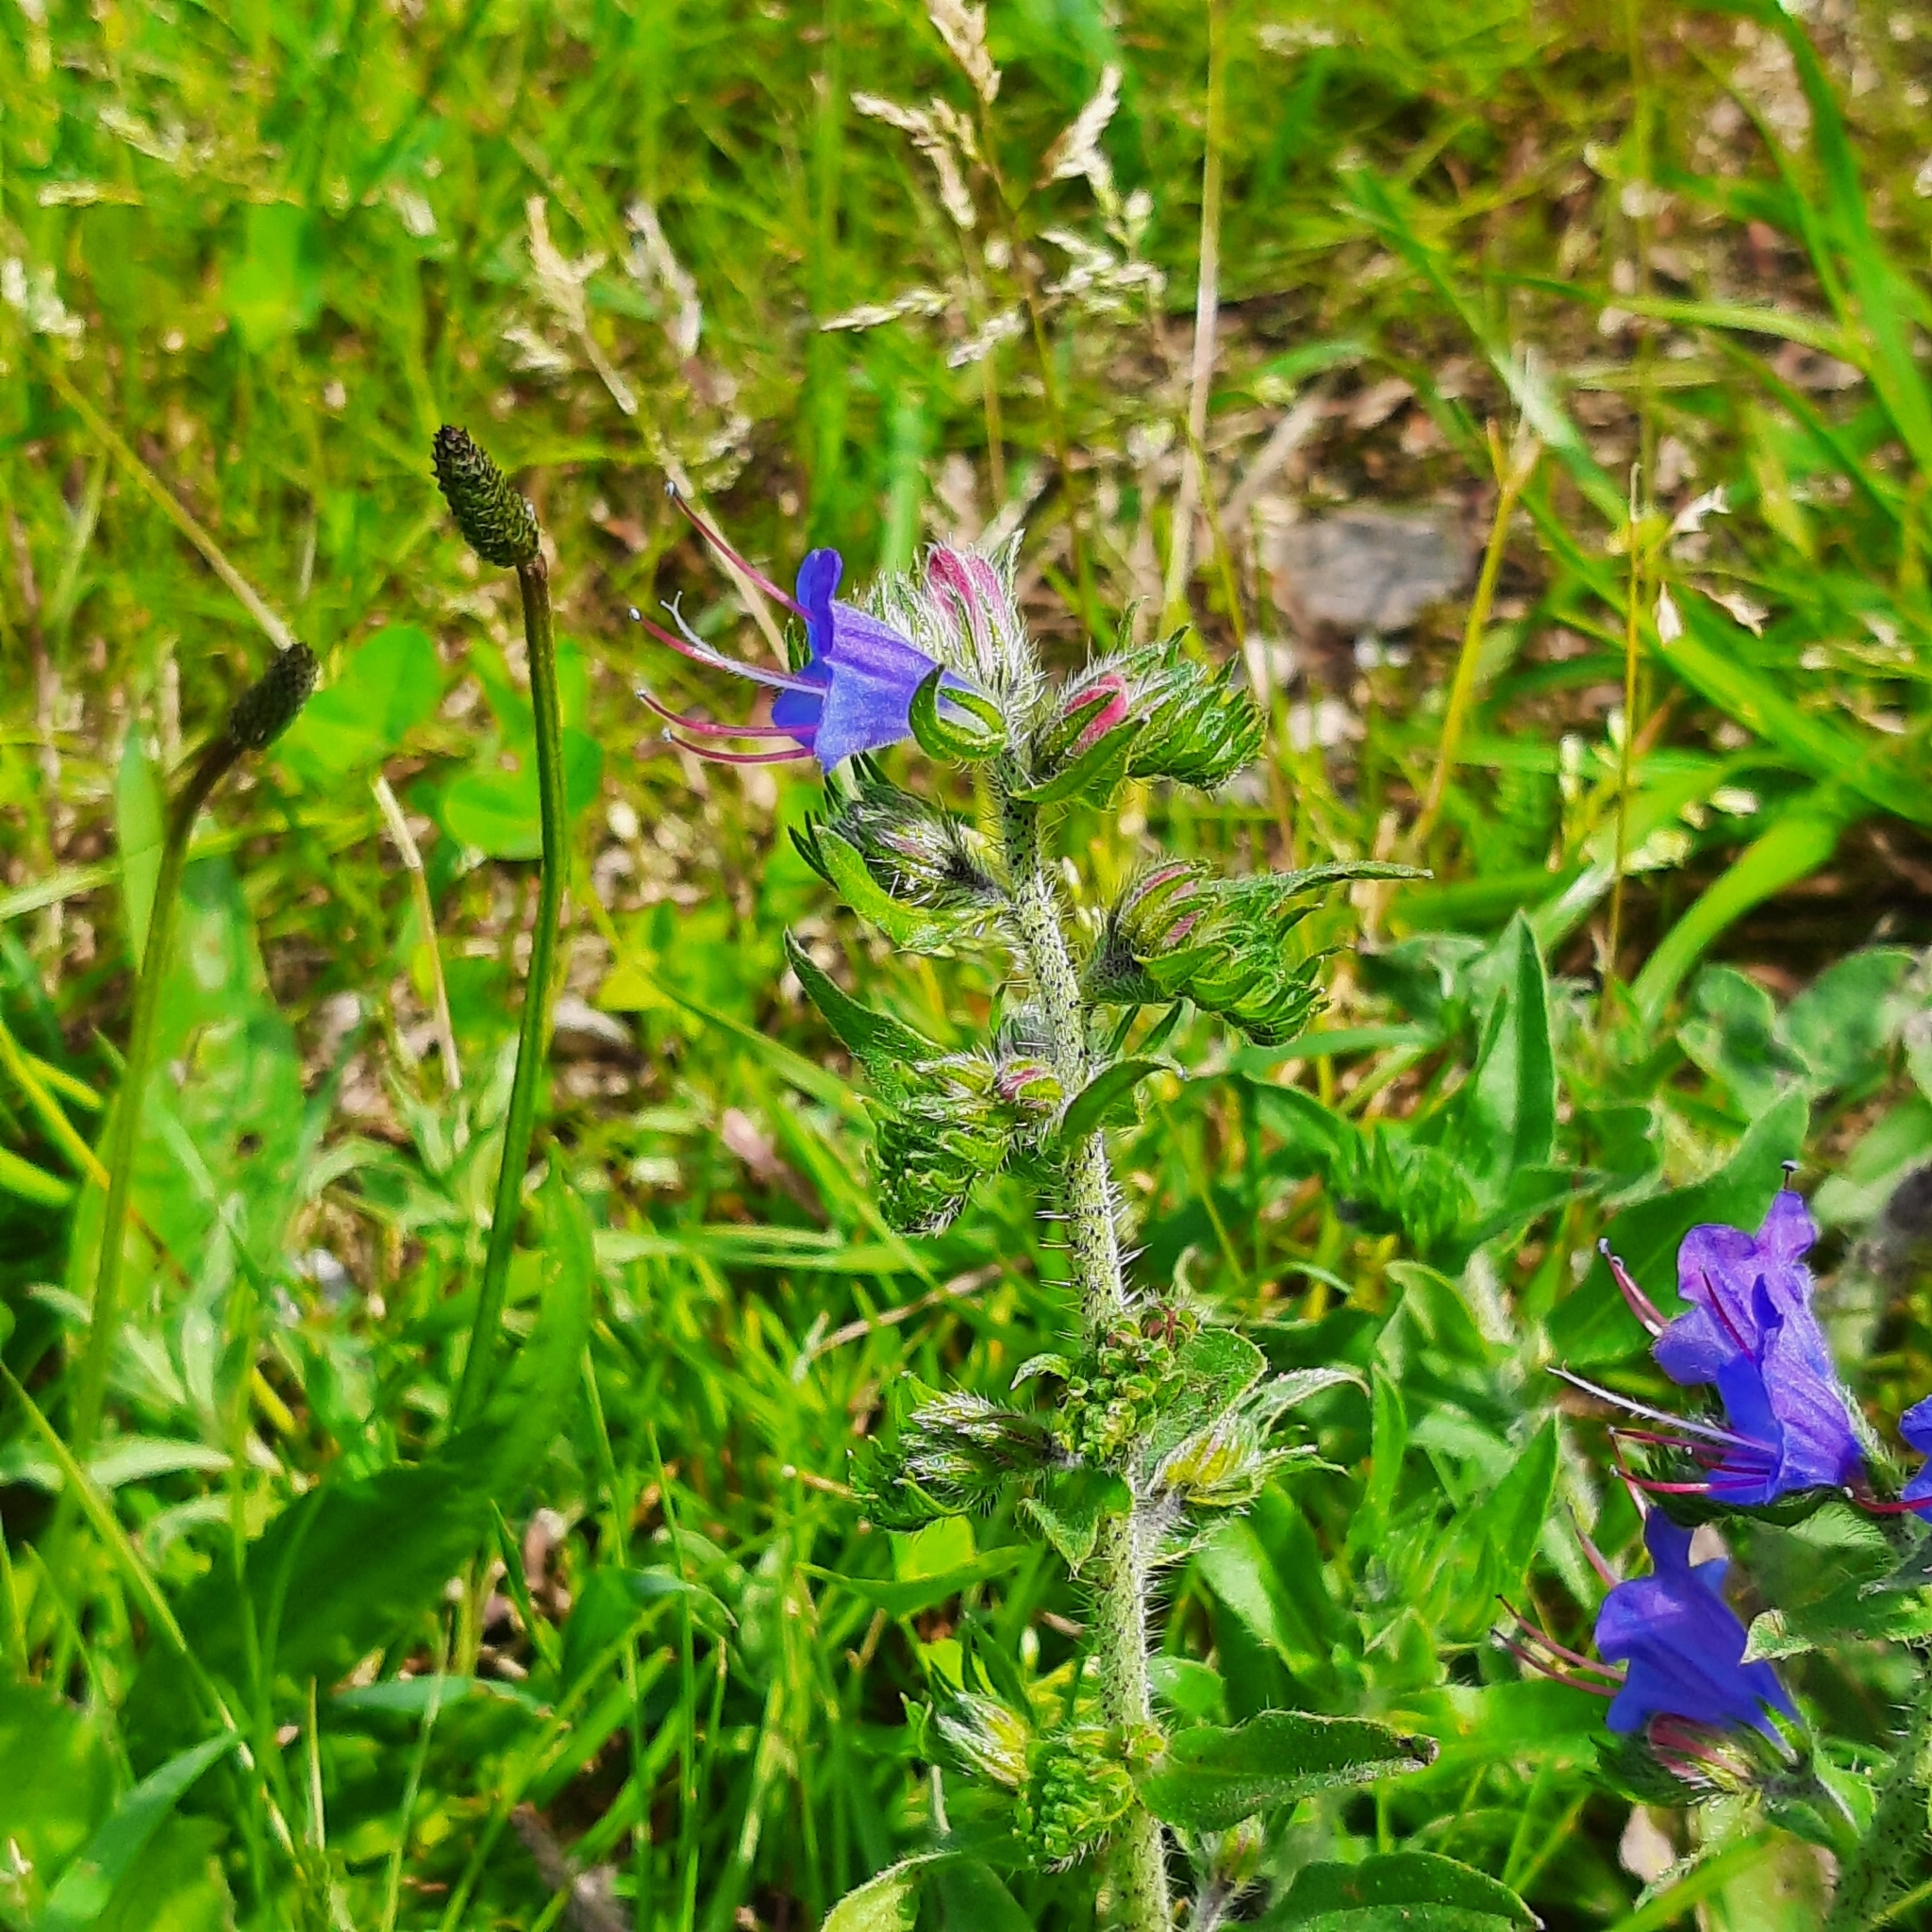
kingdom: Plantae
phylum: Tracheophyta
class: Magnoliopsida
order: Boraginales
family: Boraginaceae
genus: Echium
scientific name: Echium vulgare
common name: Common viper's bugloss
